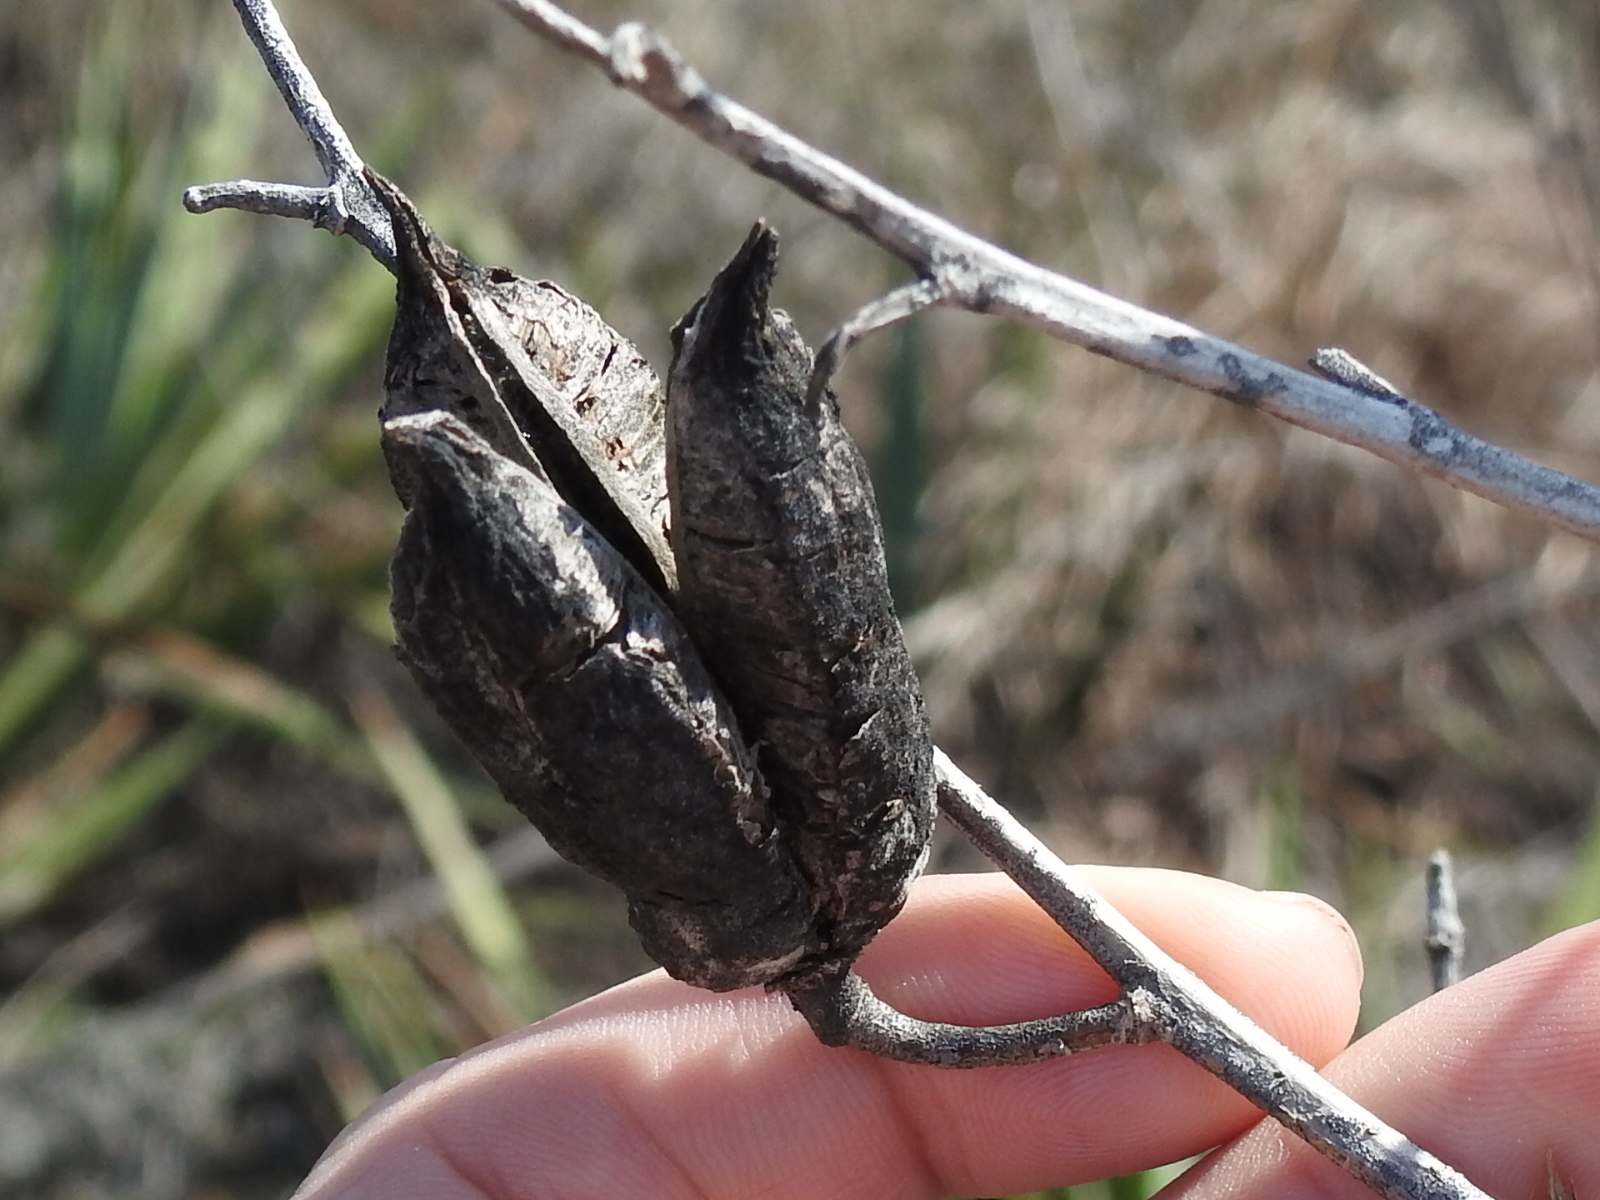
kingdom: Plantae
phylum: Tracheophyta
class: Liliopsida
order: Asparagales
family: Asparagaceae
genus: Yucca
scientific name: Yucca pallida
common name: Pale leaf yucca
